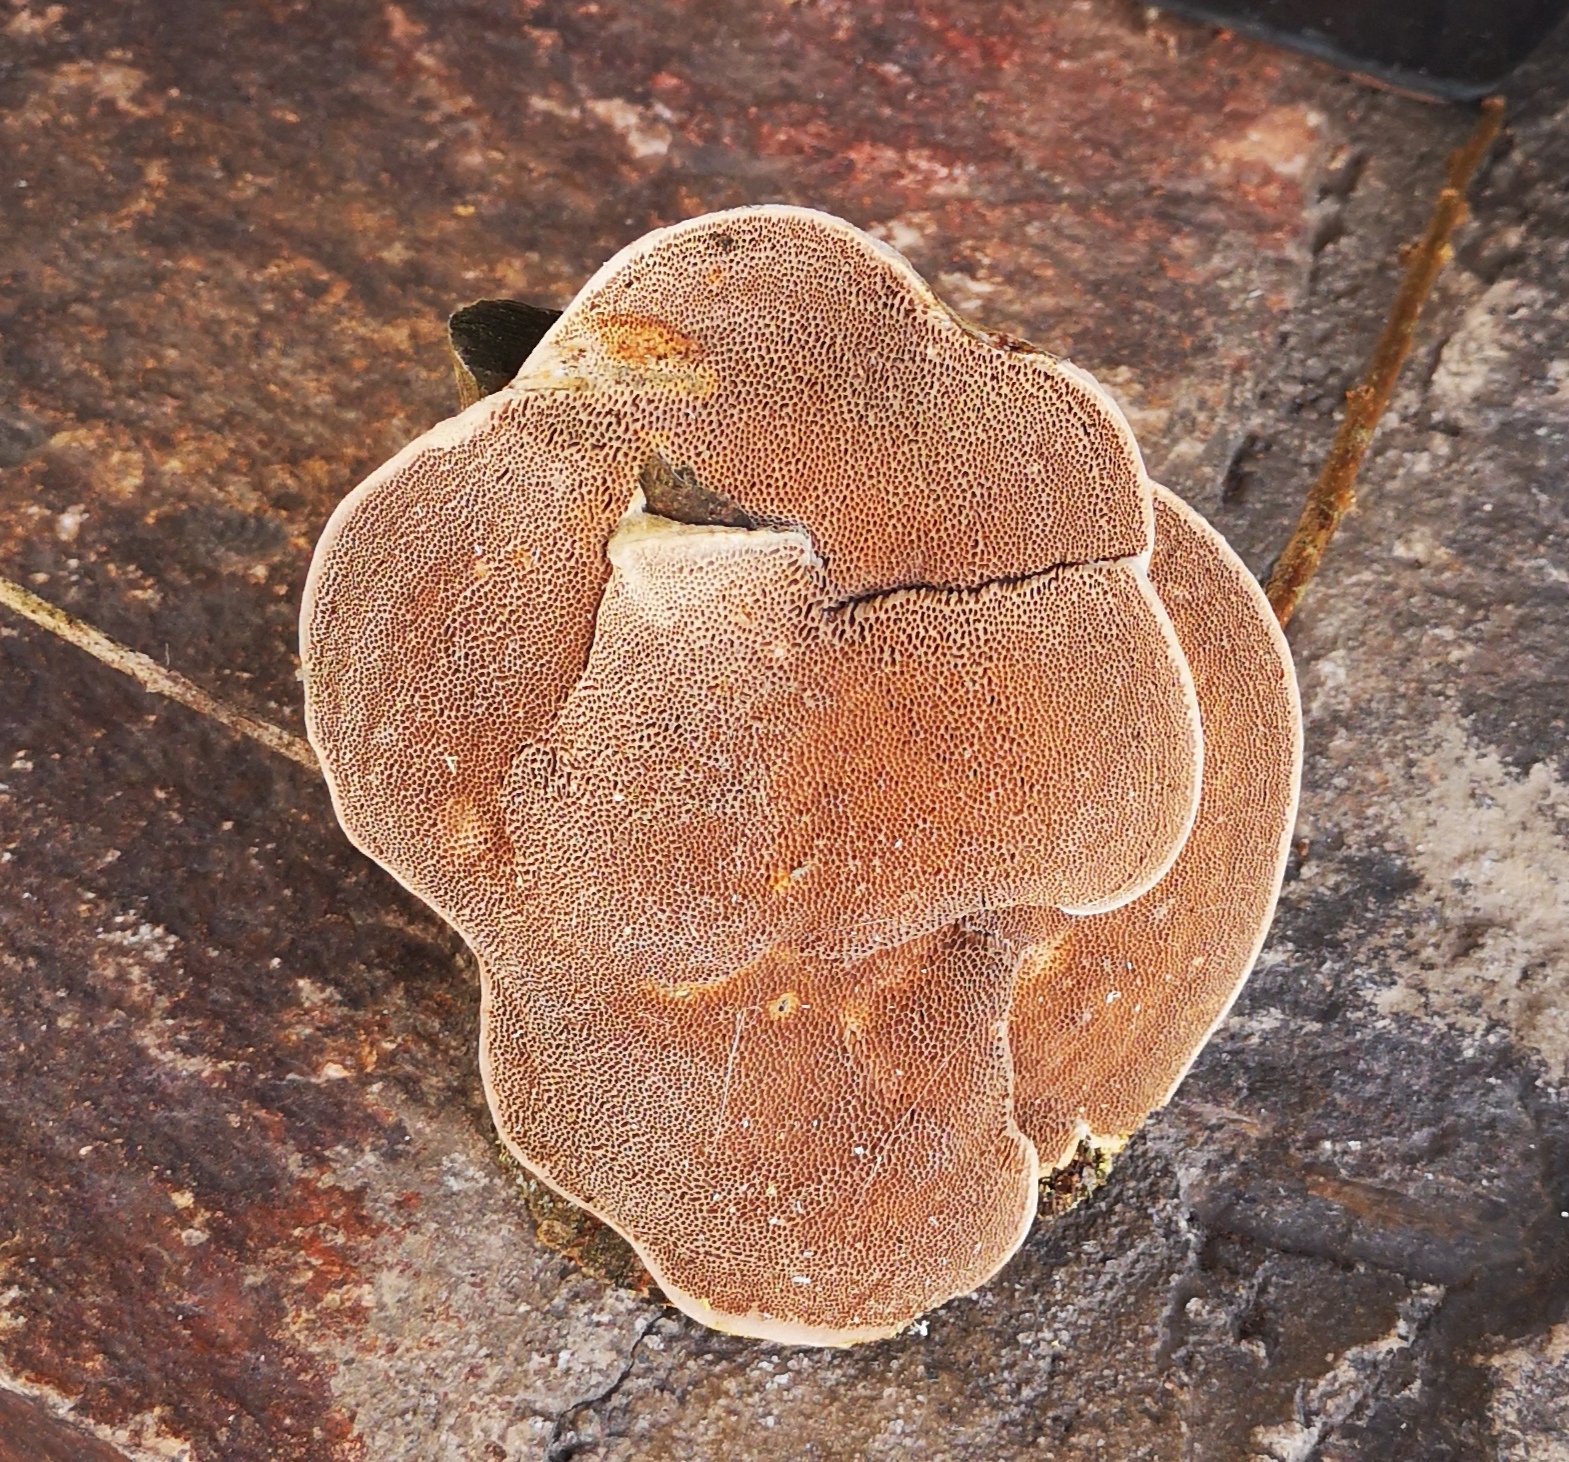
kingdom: Fungi
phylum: Basidiomycota
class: Agaricomycetes
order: Polyporales
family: Polyporaceae
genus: Trametes
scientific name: Trametes suaveolens
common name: Fragrant bracket
